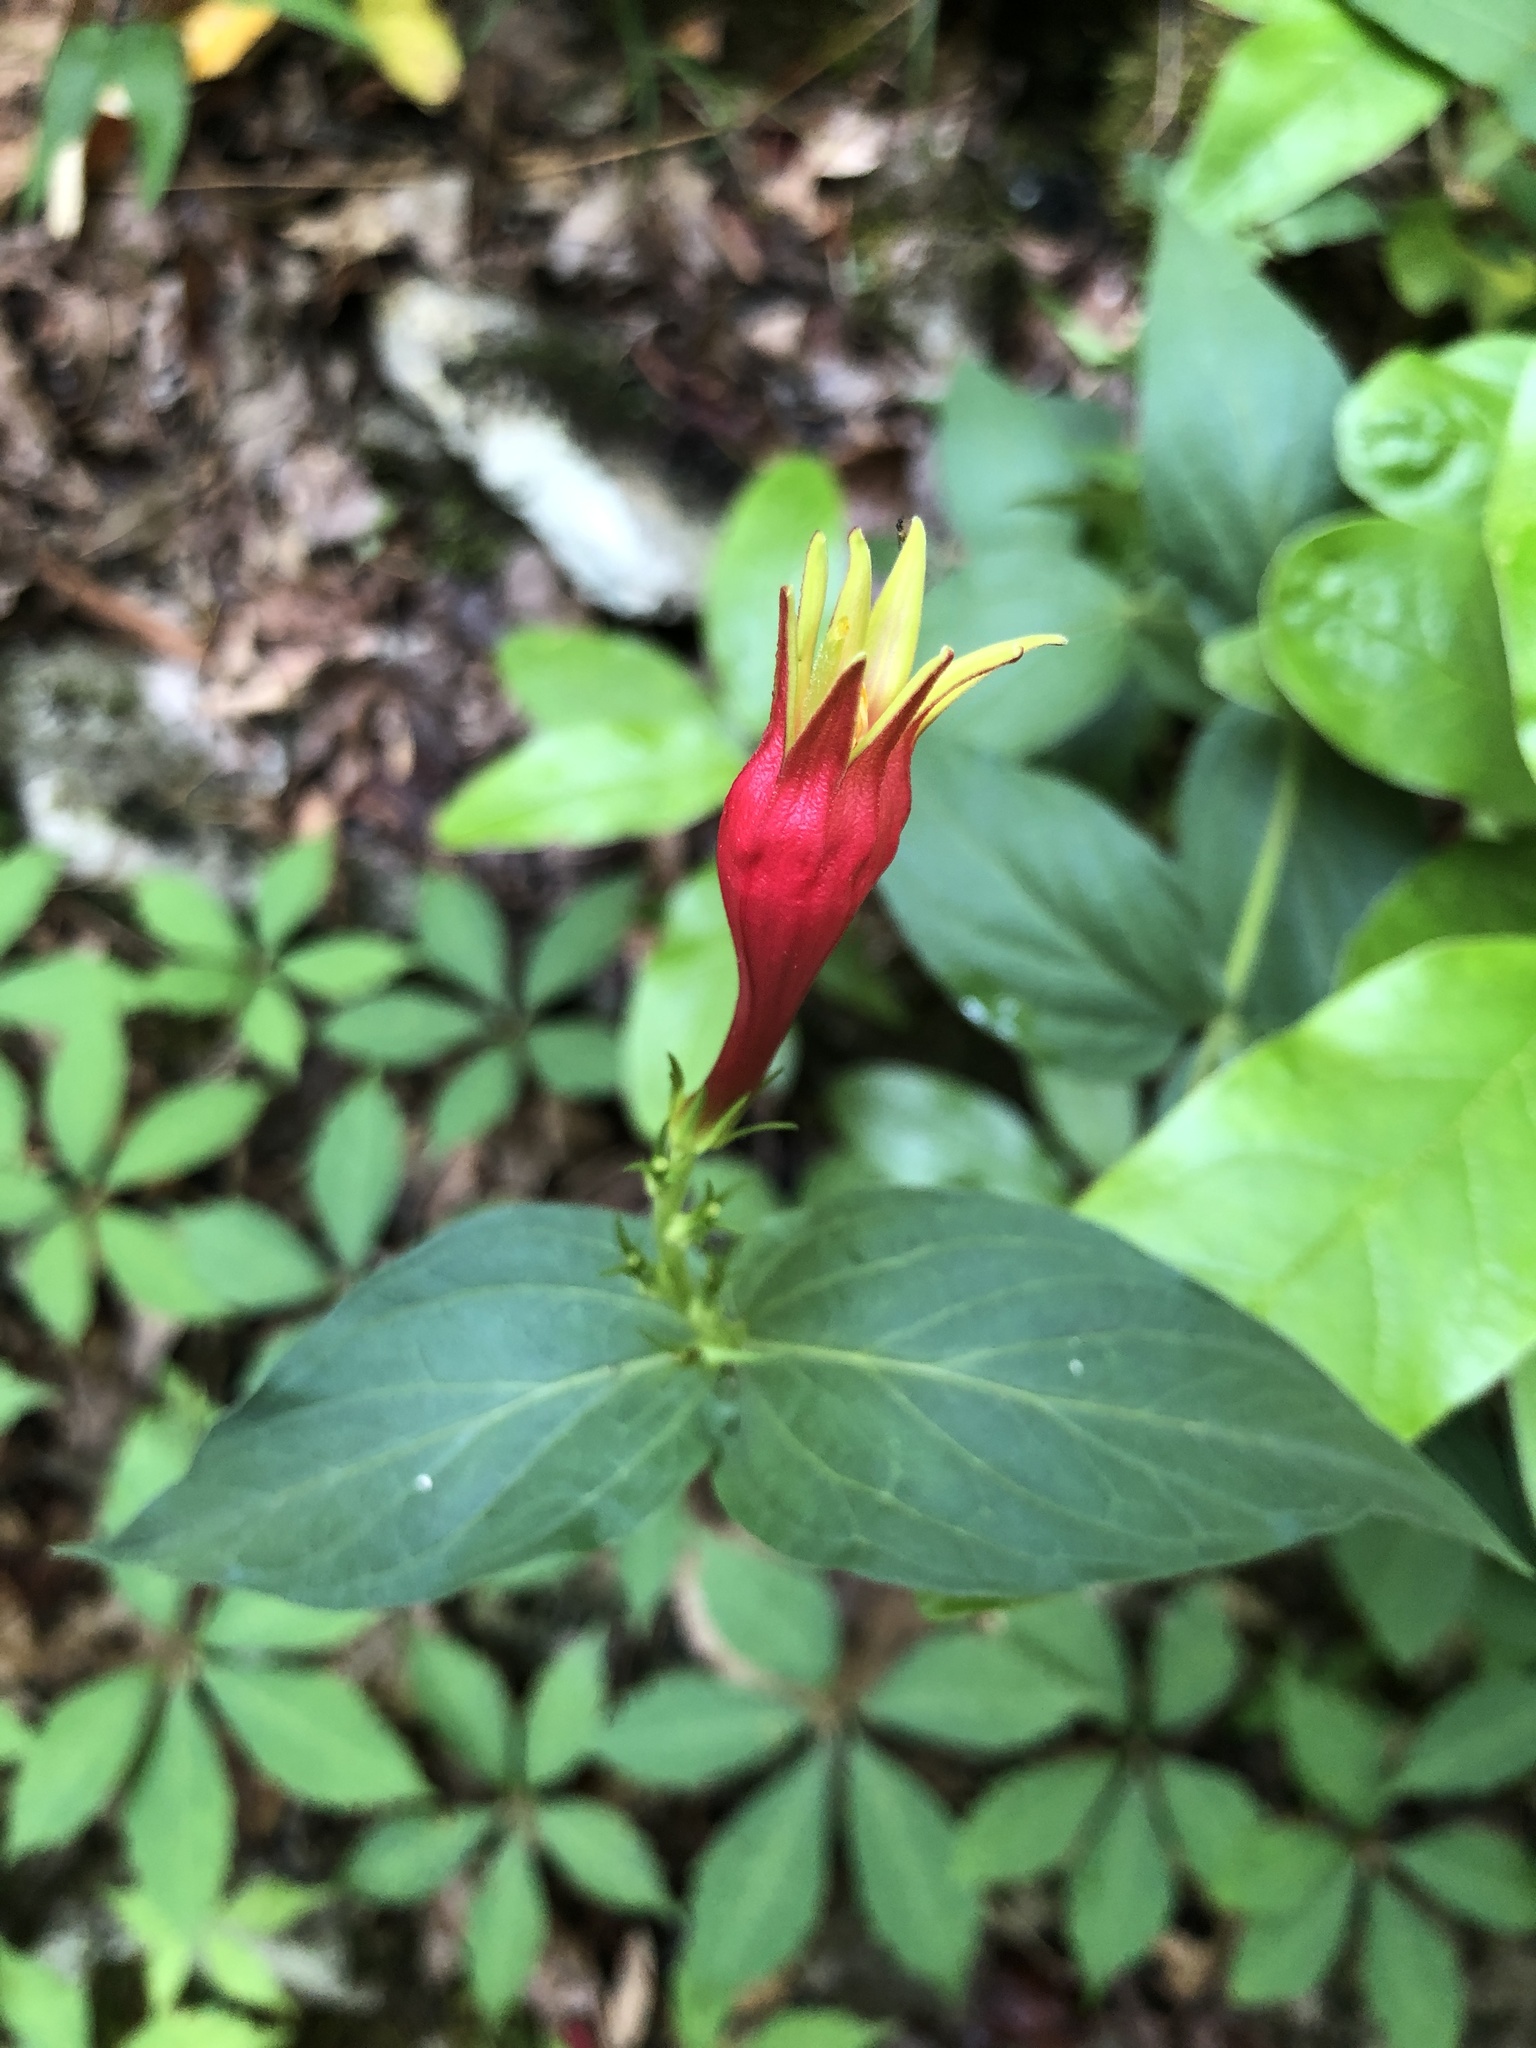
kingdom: Plantae
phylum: Tracheophyta
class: Magnoliopsida
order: Gentianales
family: Loganiaceae
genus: Spigelia
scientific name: Spigelia marilandica
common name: Indian-pink
